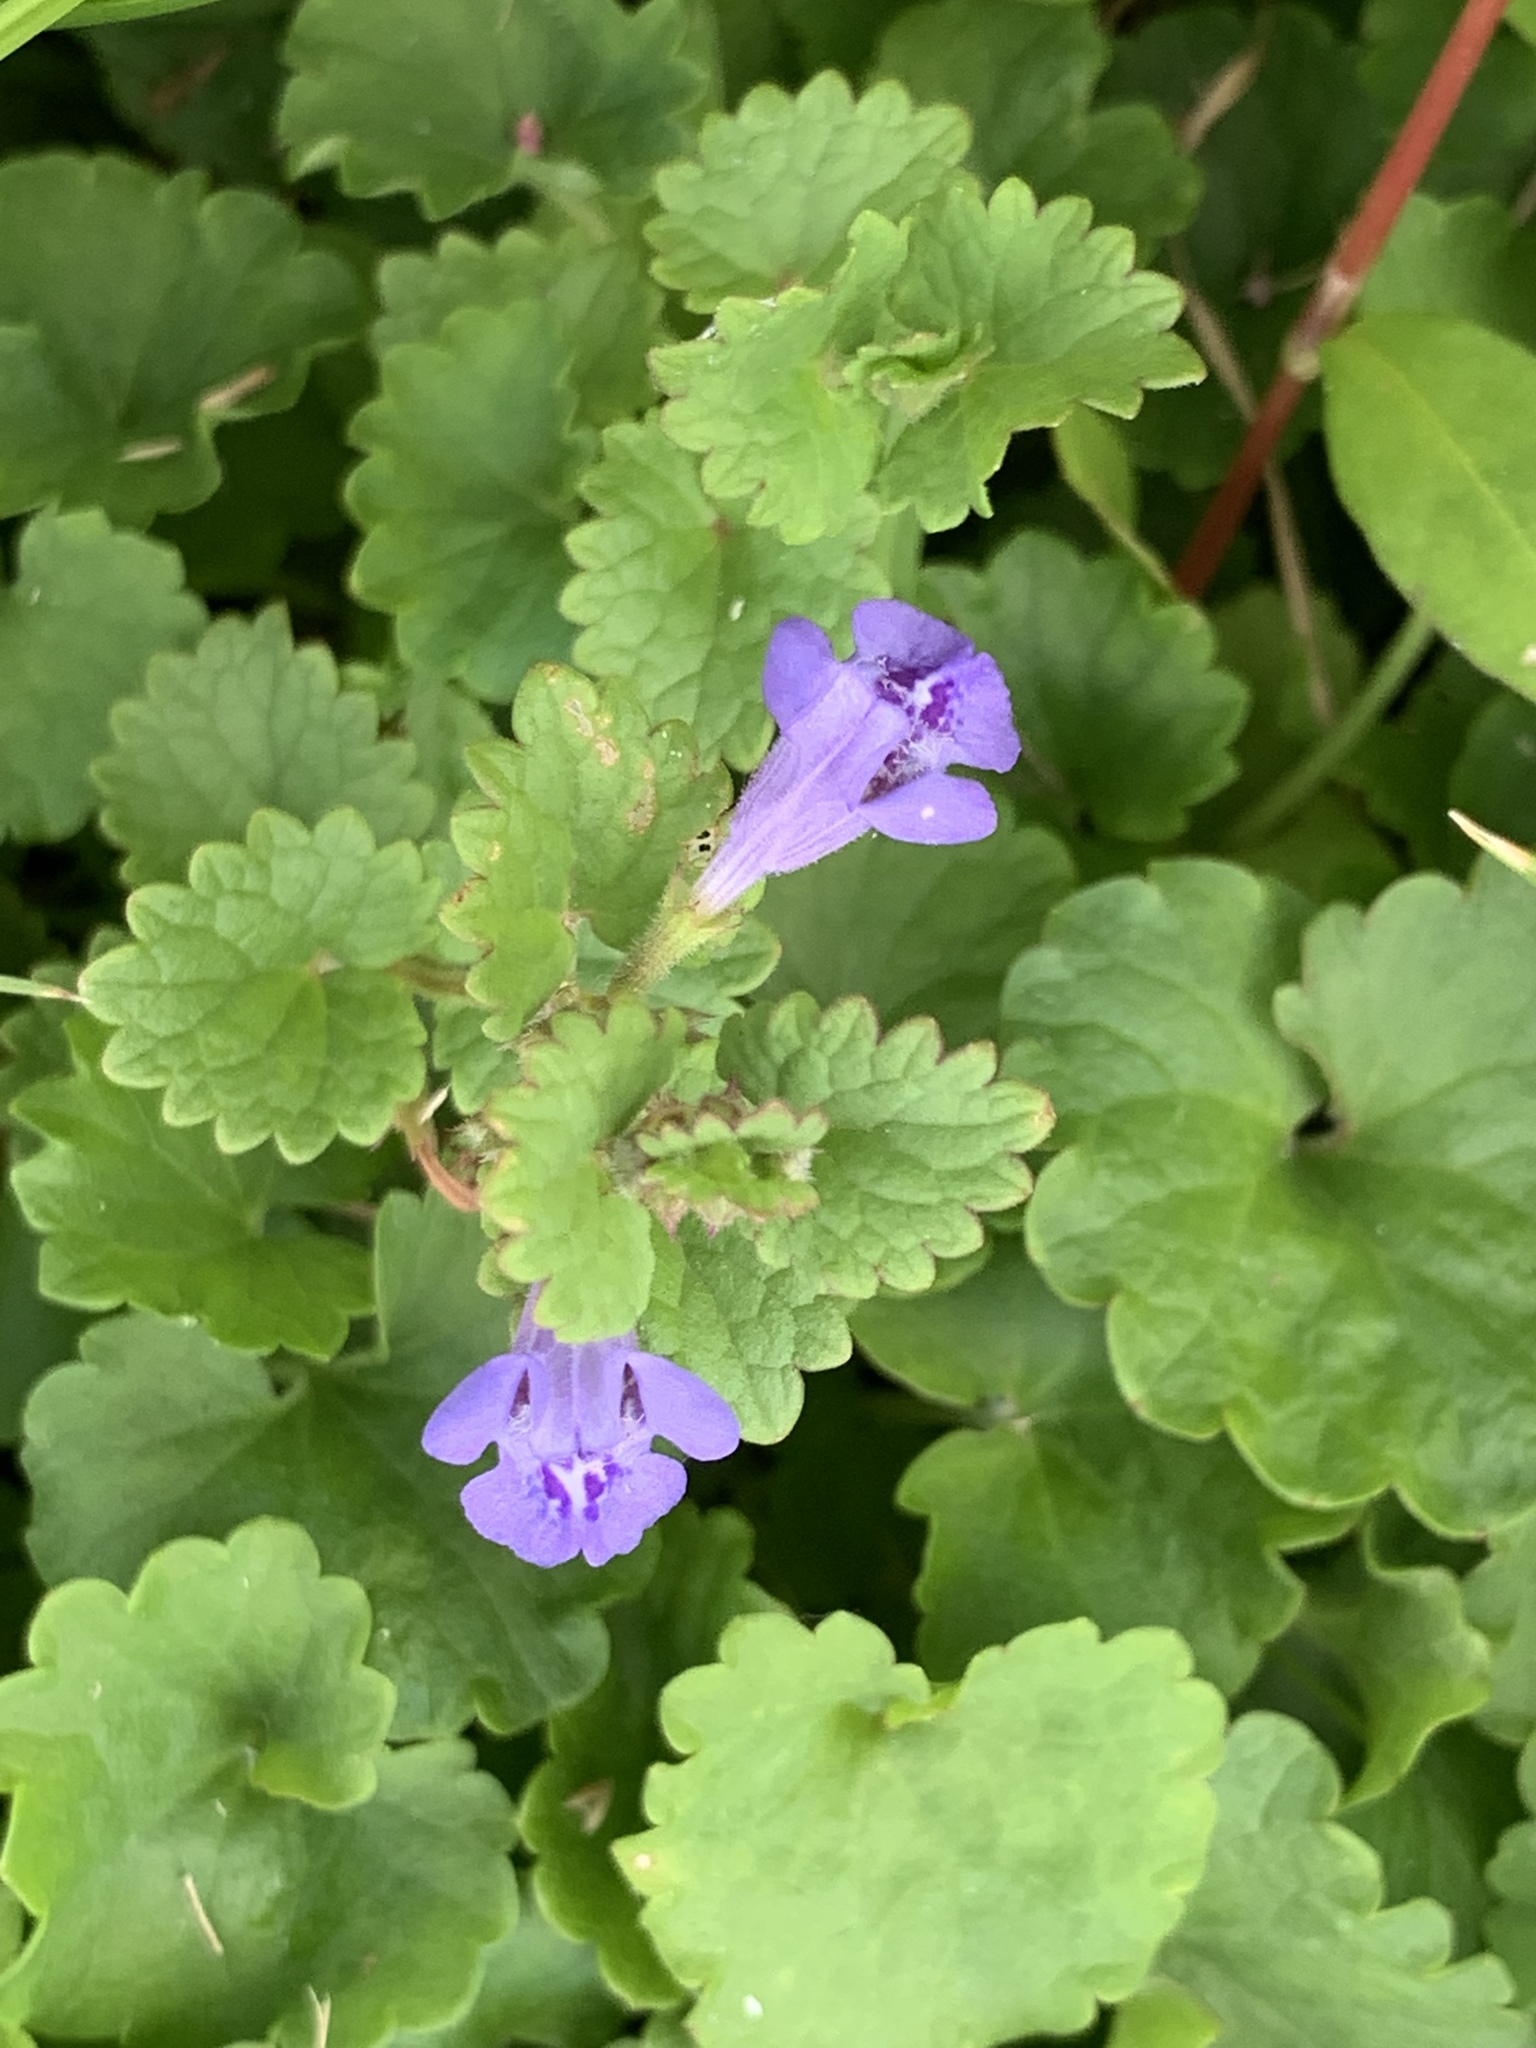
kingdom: Plantae
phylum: Tracheophyta
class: Magnoliopsida
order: Lamiales
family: Lamiaceae
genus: Glechoma
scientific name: Glechoma hederacea
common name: Ground ivy
